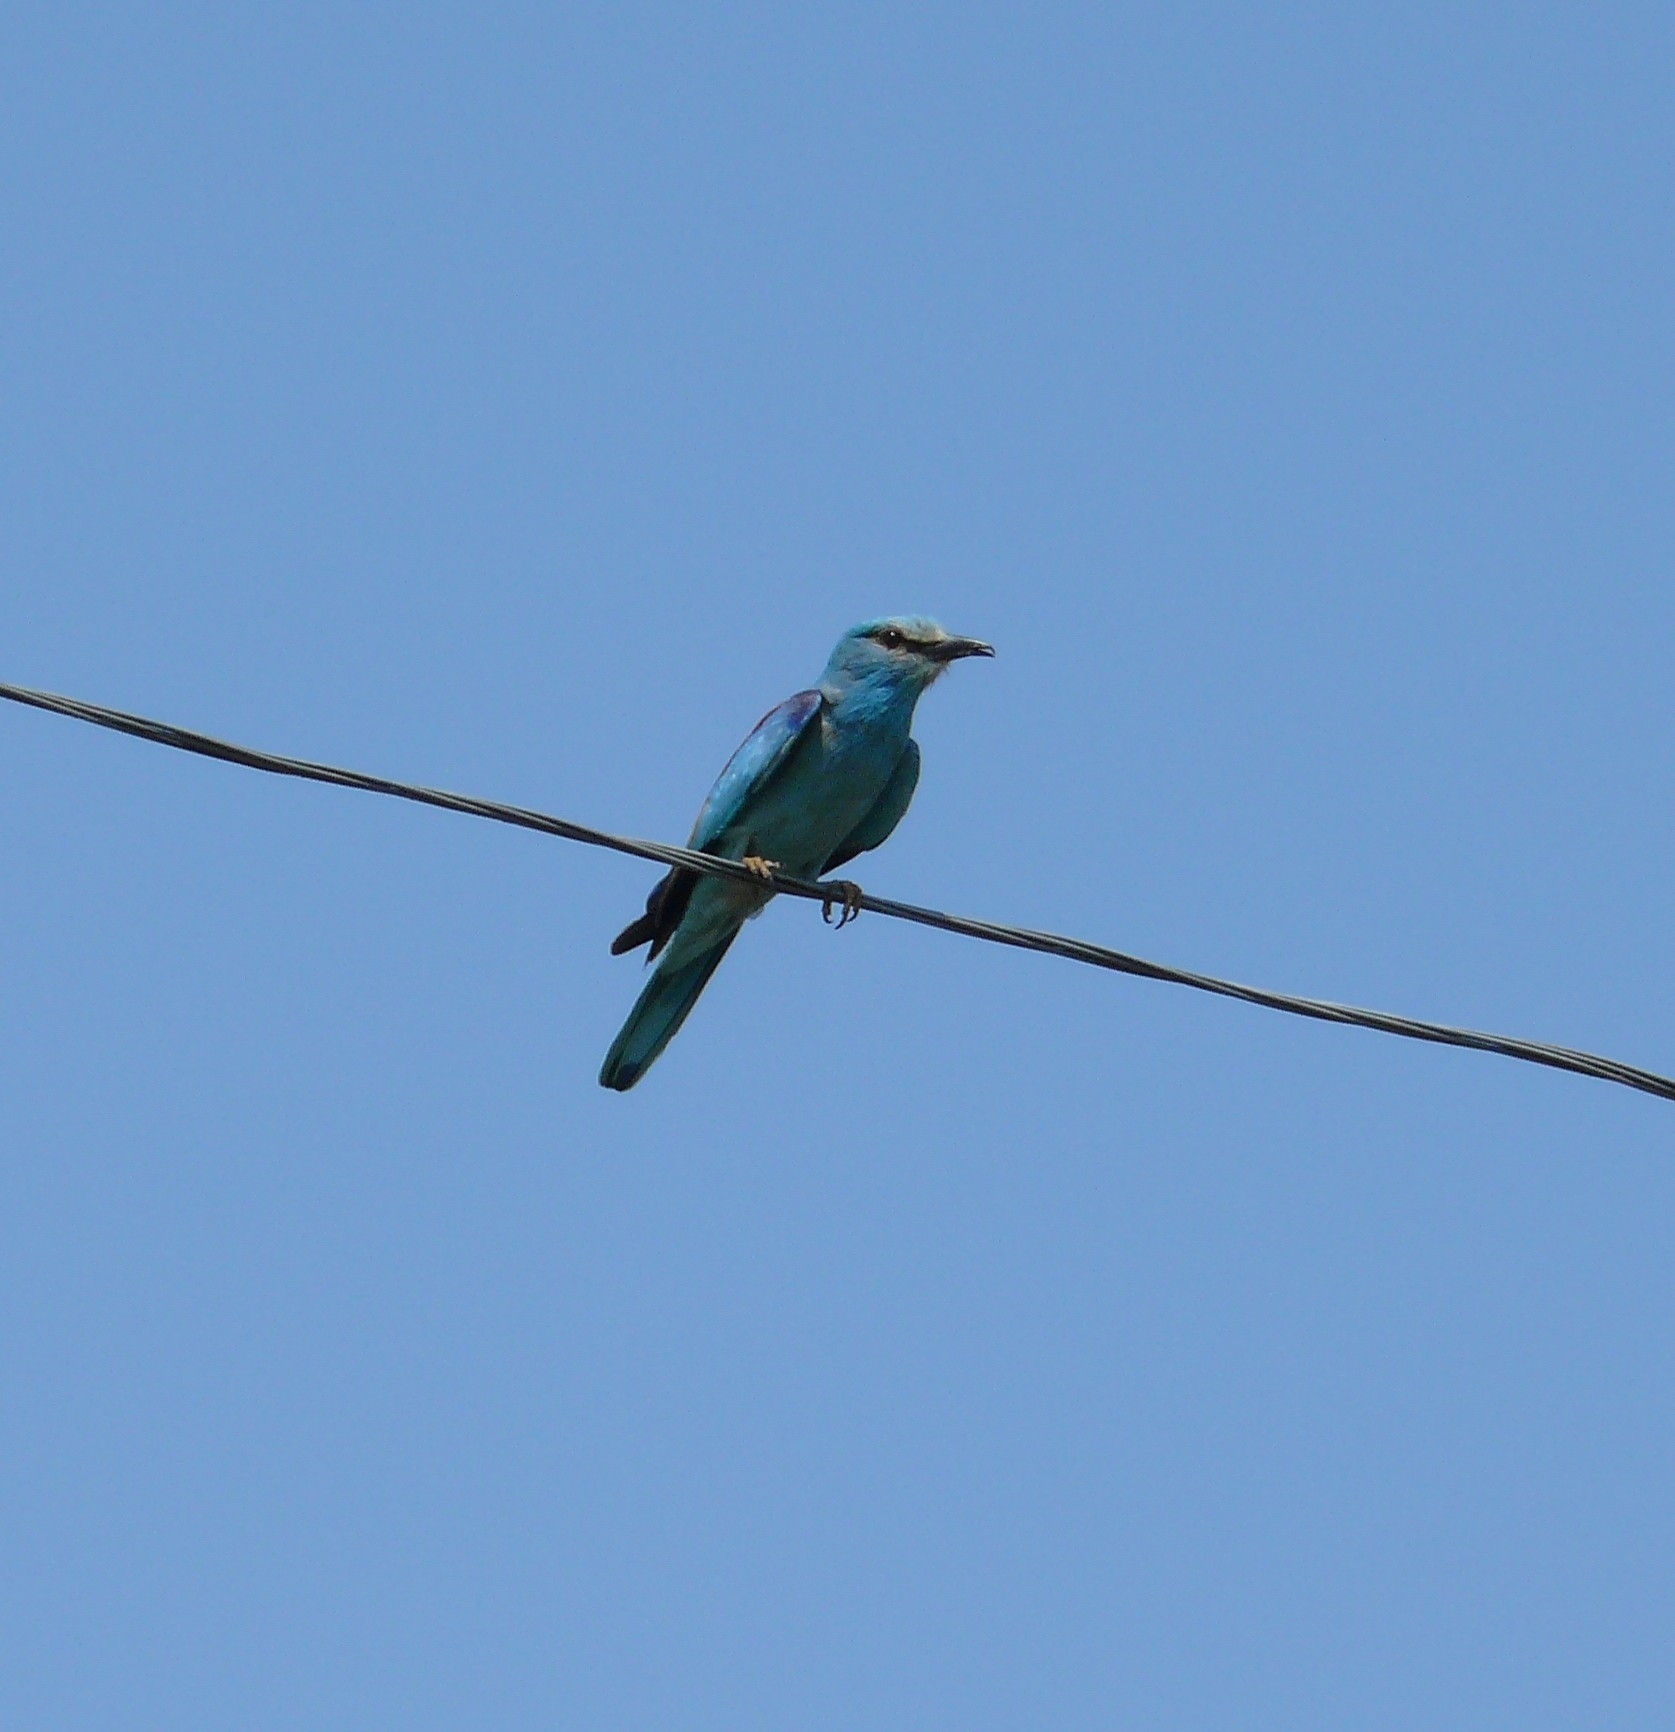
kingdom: Animalia
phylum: Chordata
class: Aves
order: Coraciiformes
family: Coraciidae
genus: Coracias
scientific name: Coracias garrulus
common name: European roller
